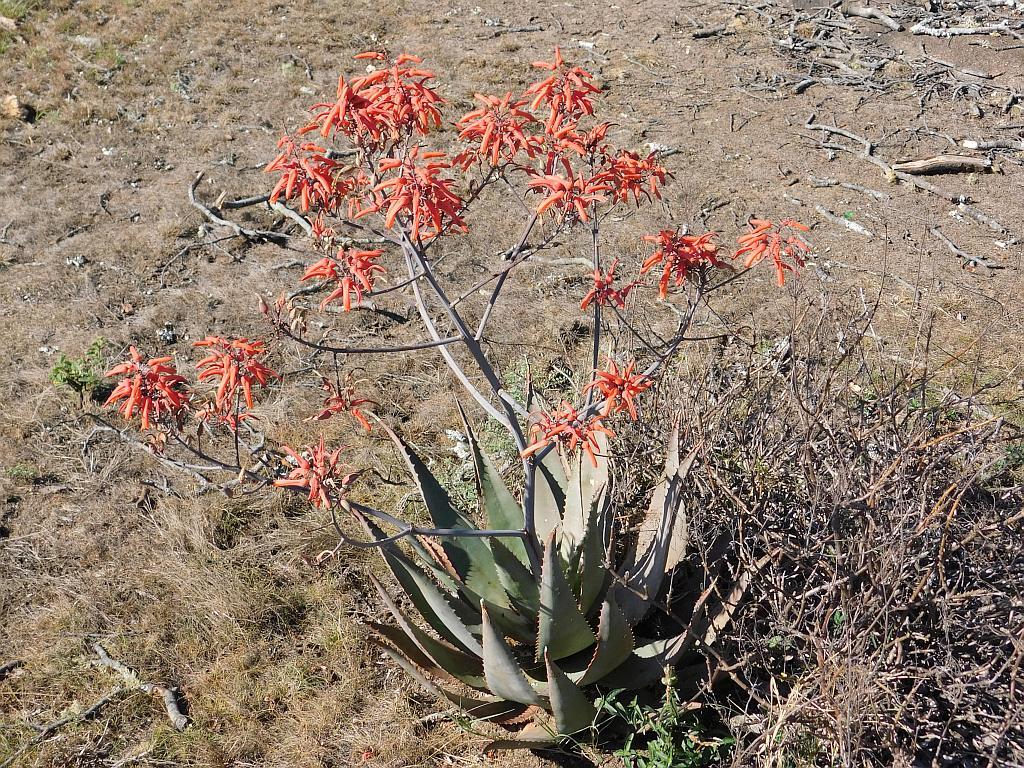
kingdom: Plantae
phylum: Tracheophyta
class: Liliopsida
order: Asparagales
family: Asphodelaceae
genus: Aloe
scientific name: Aloe chabaudii
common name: Chabaud's aloe
